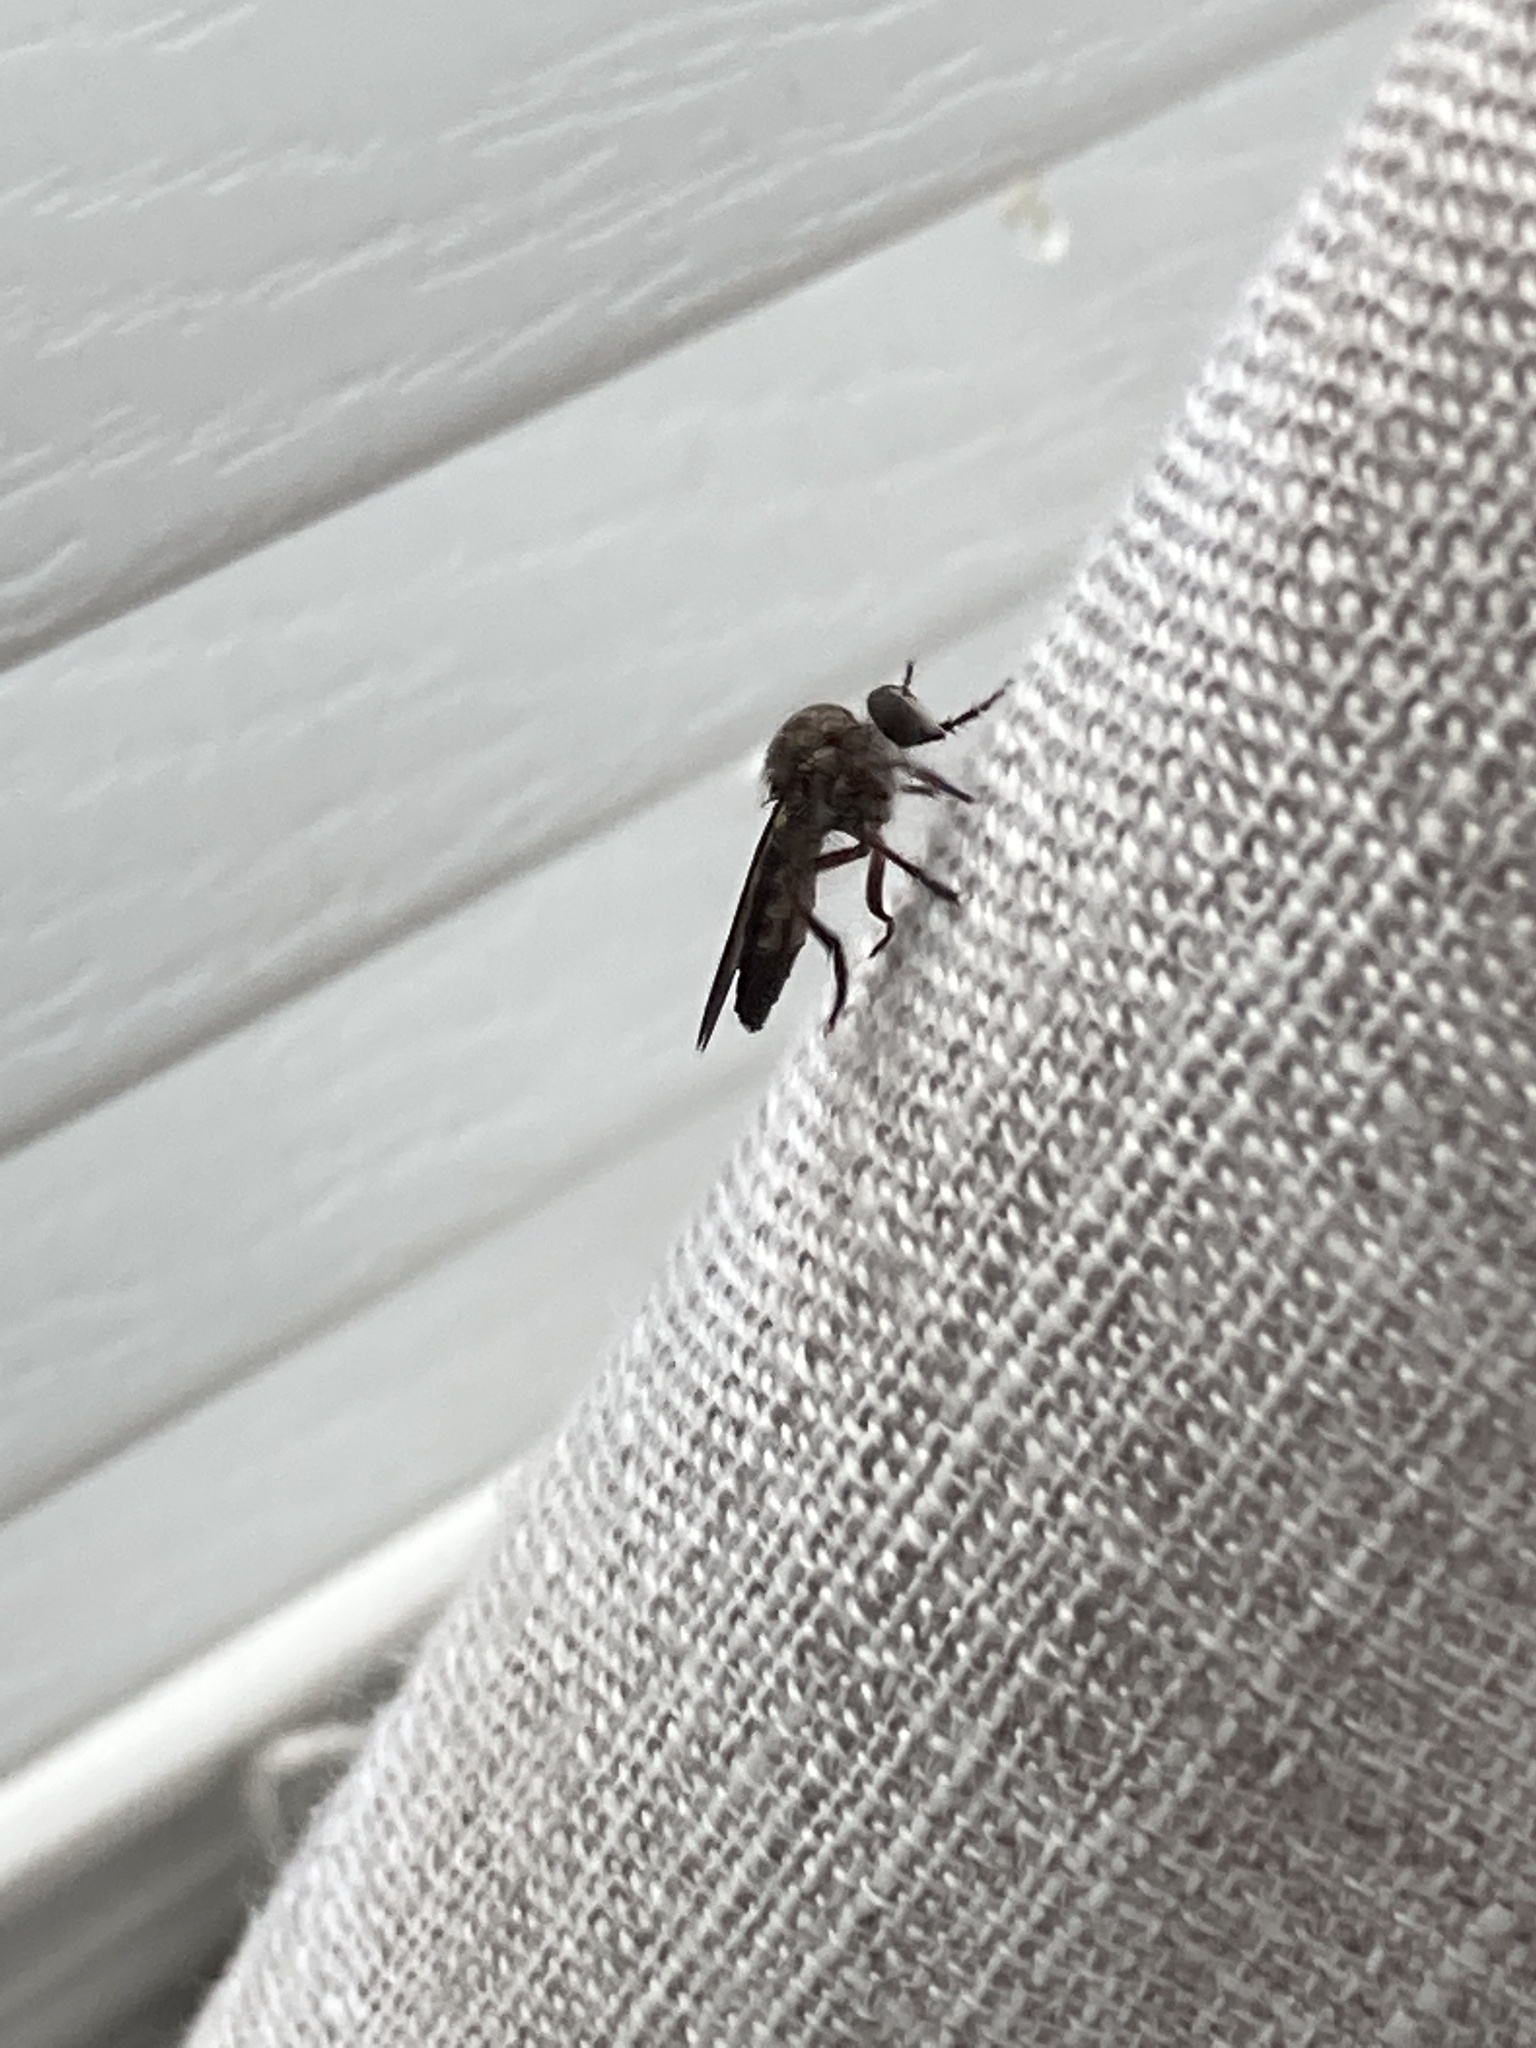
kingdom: Animalia
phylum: Arthropoda
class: Insecta
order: Diptera
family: Asilidae
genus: Heteropogon
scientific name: Heteropogon macerinus
